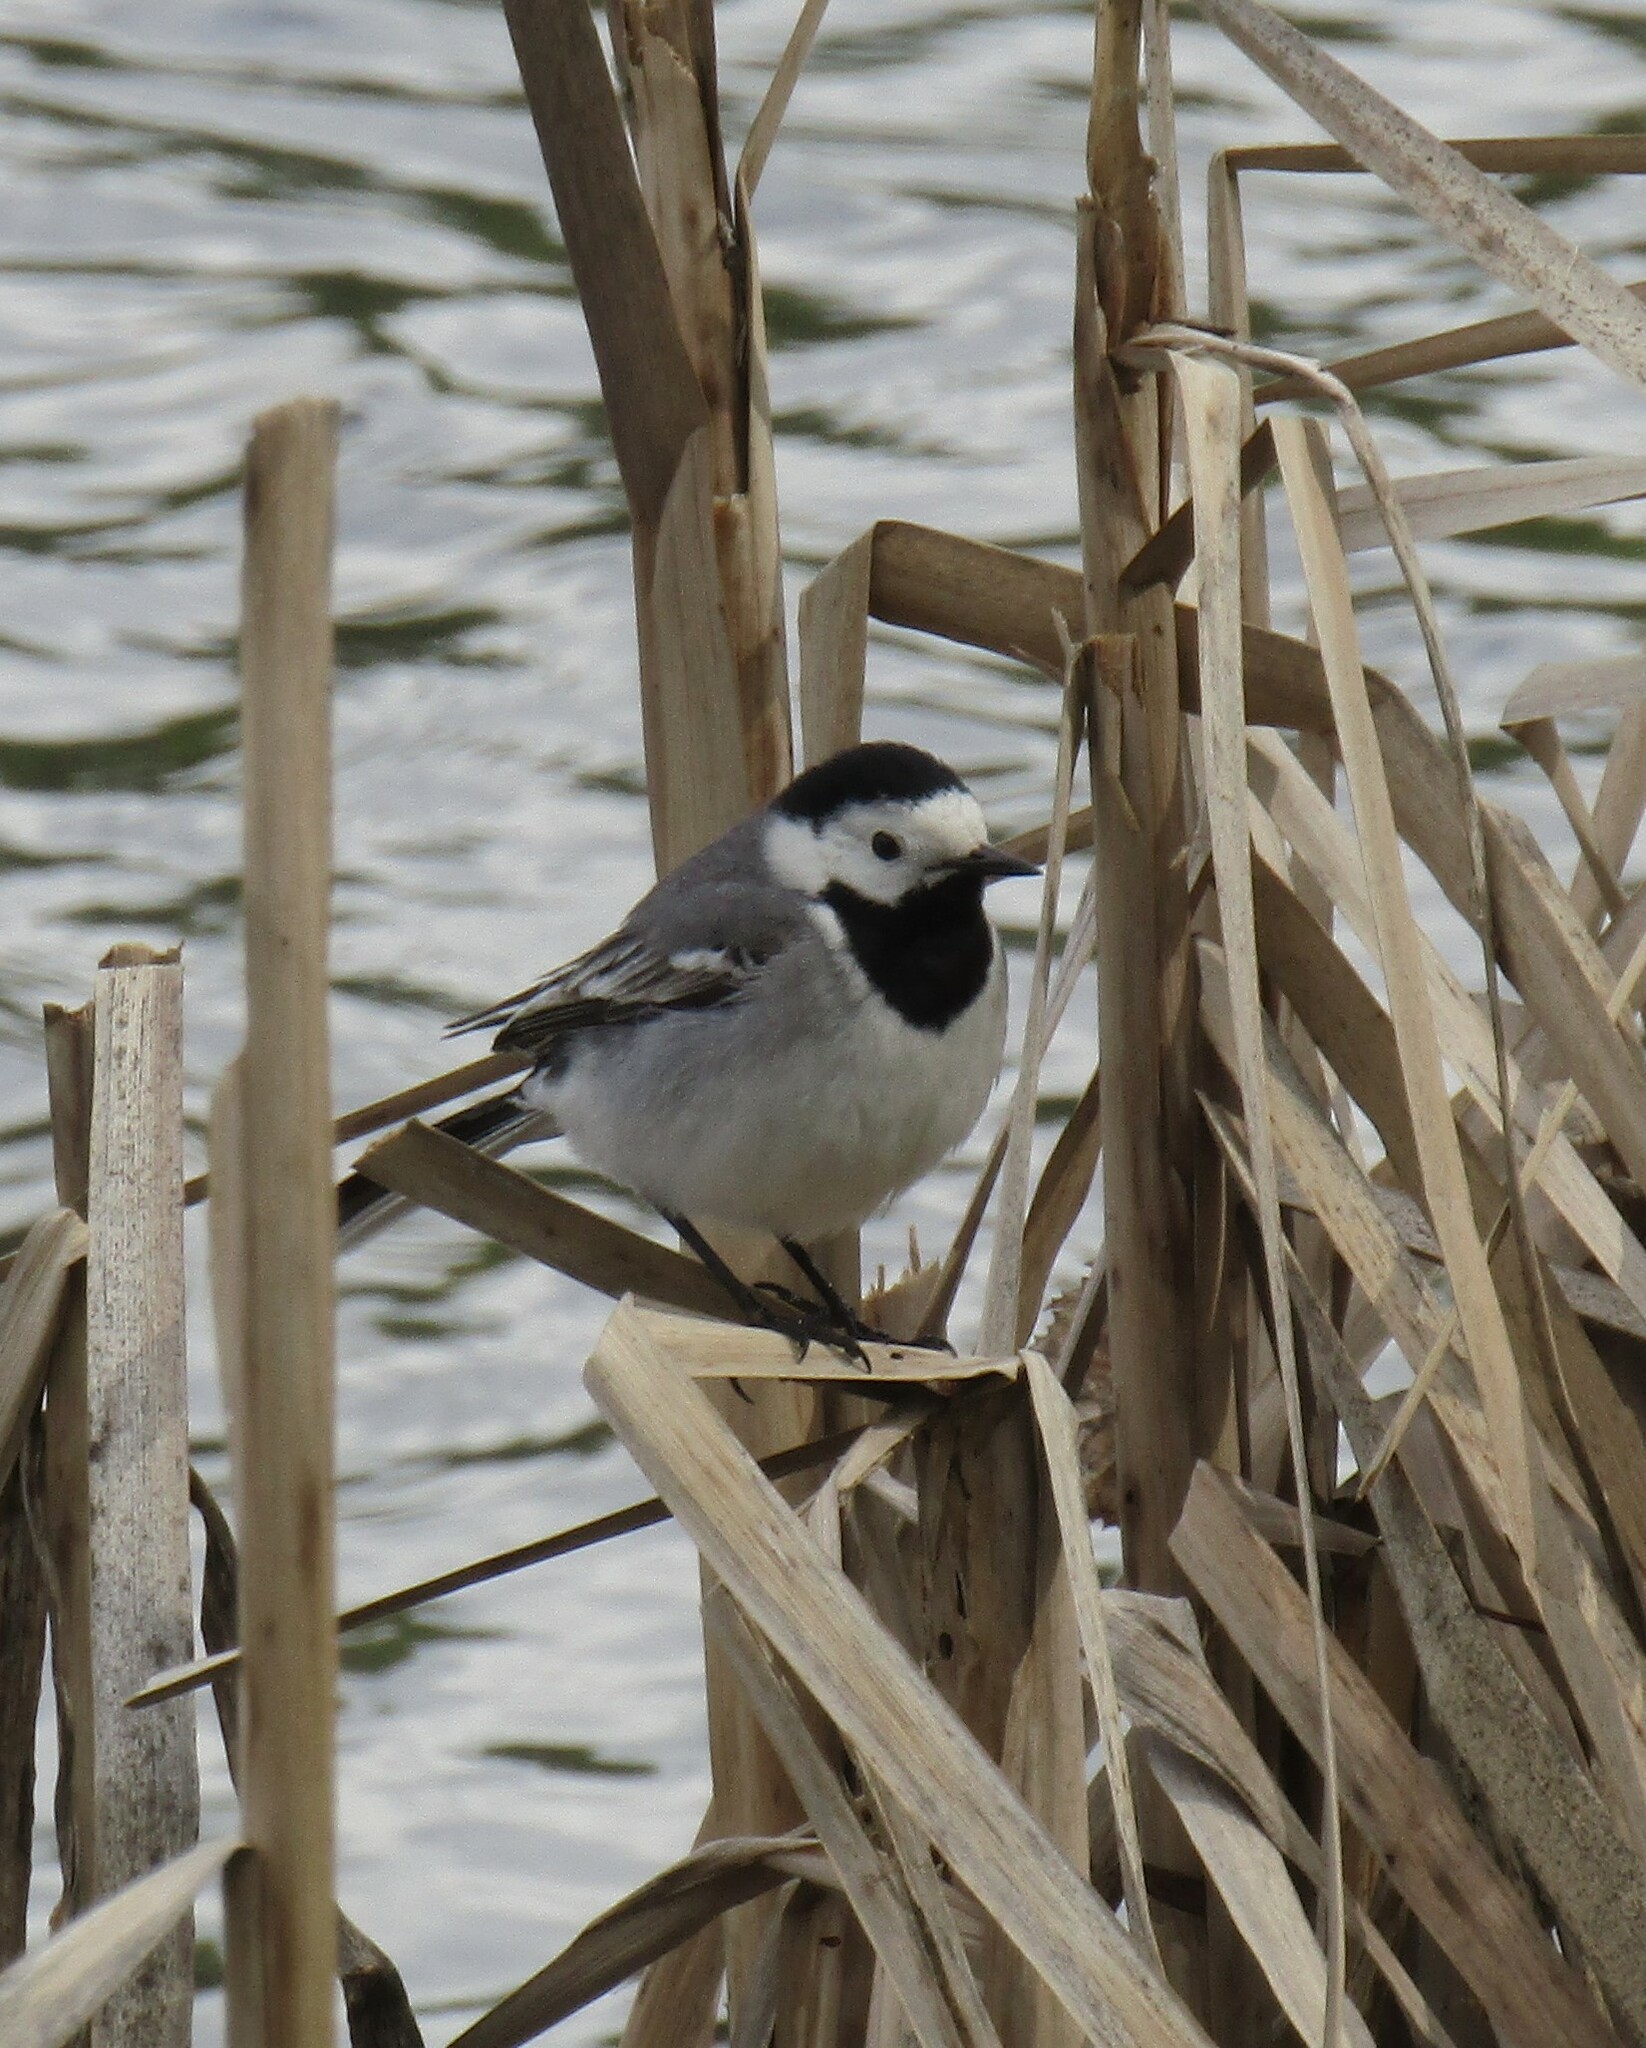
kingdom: Animalia
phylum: Chordata
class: Aves
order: Passeriformes
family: Motacillidae
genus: Motacilla
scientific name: Motacilla alba
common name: White wagtail
